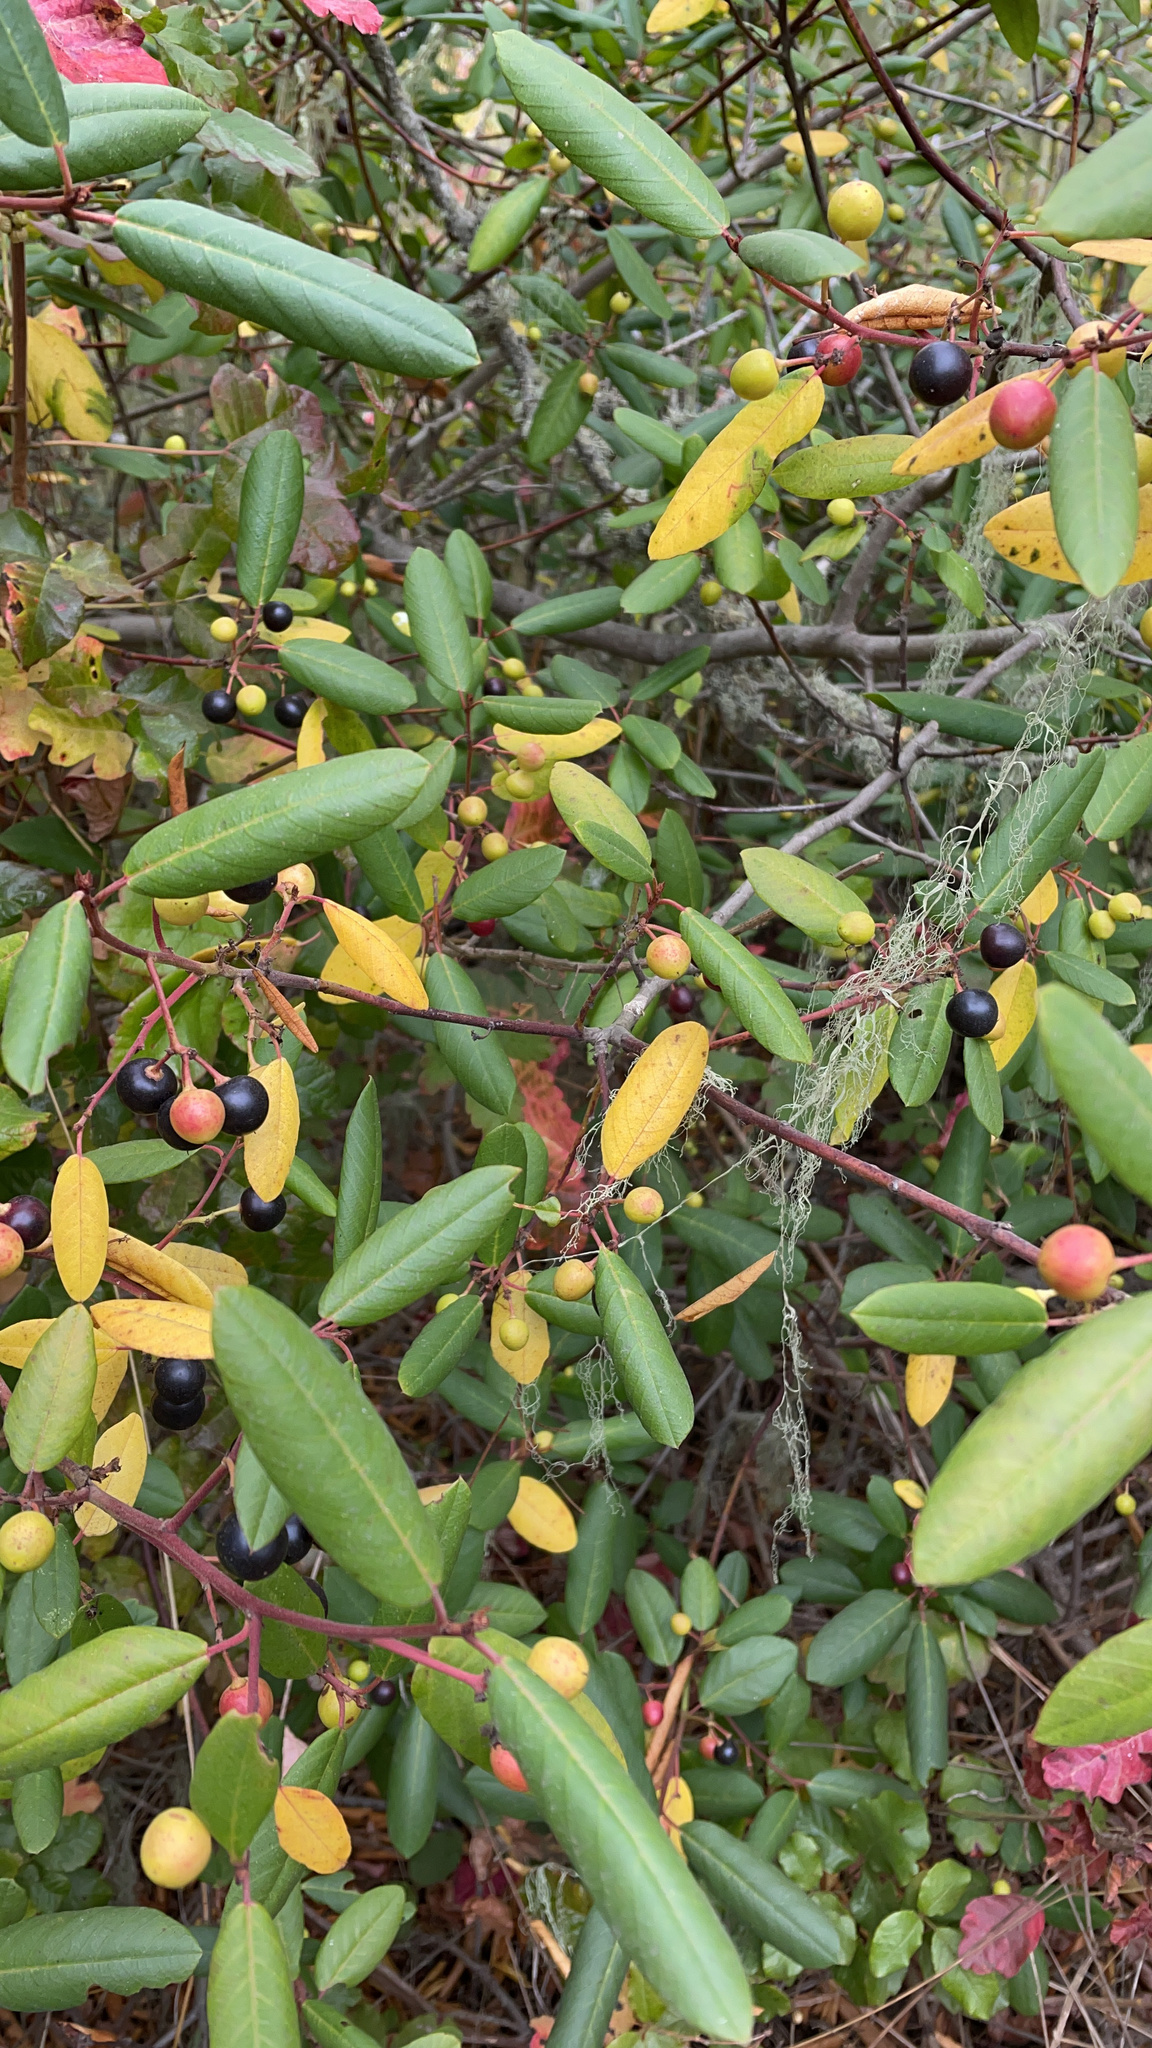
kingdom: Plantae
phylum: Tracheophyta
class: Magnoliopsida
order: Rosales
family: Rhamnaceae
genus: Frangula
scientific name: Frangula californica
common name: California buckthorn
